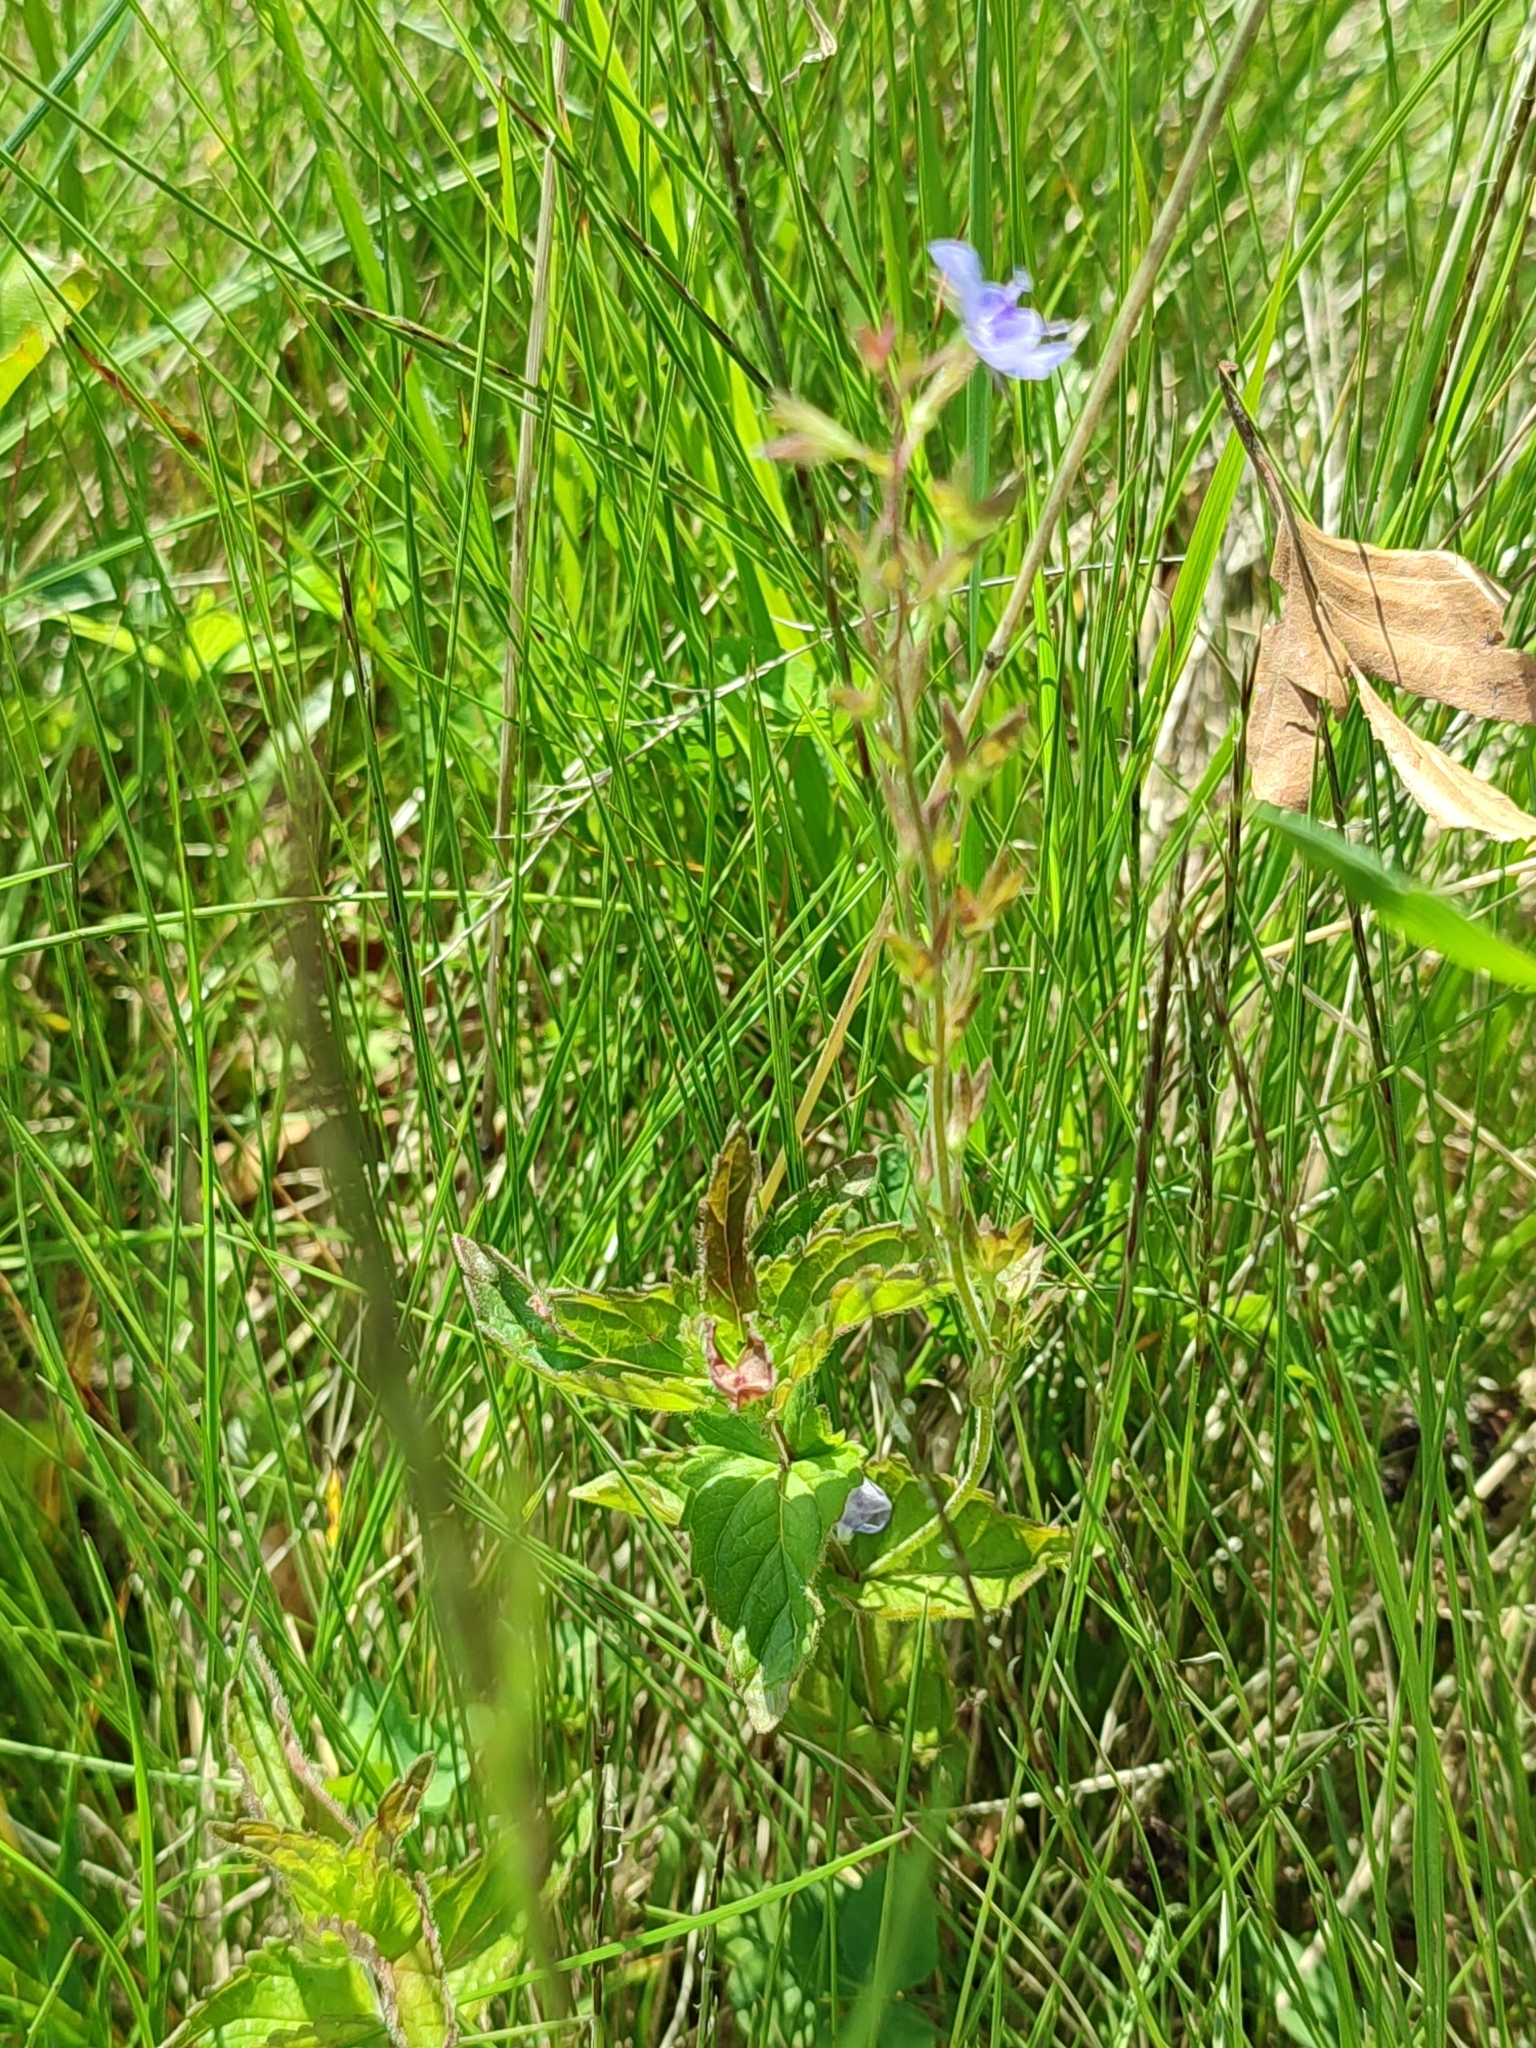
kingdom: Plantae
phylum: Tracheophyta
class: Magnoliopsida
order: Lamiales
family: Plantaginaceae
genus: Veronica
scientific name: Veronica chamaedrys
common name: Germander speedwell
